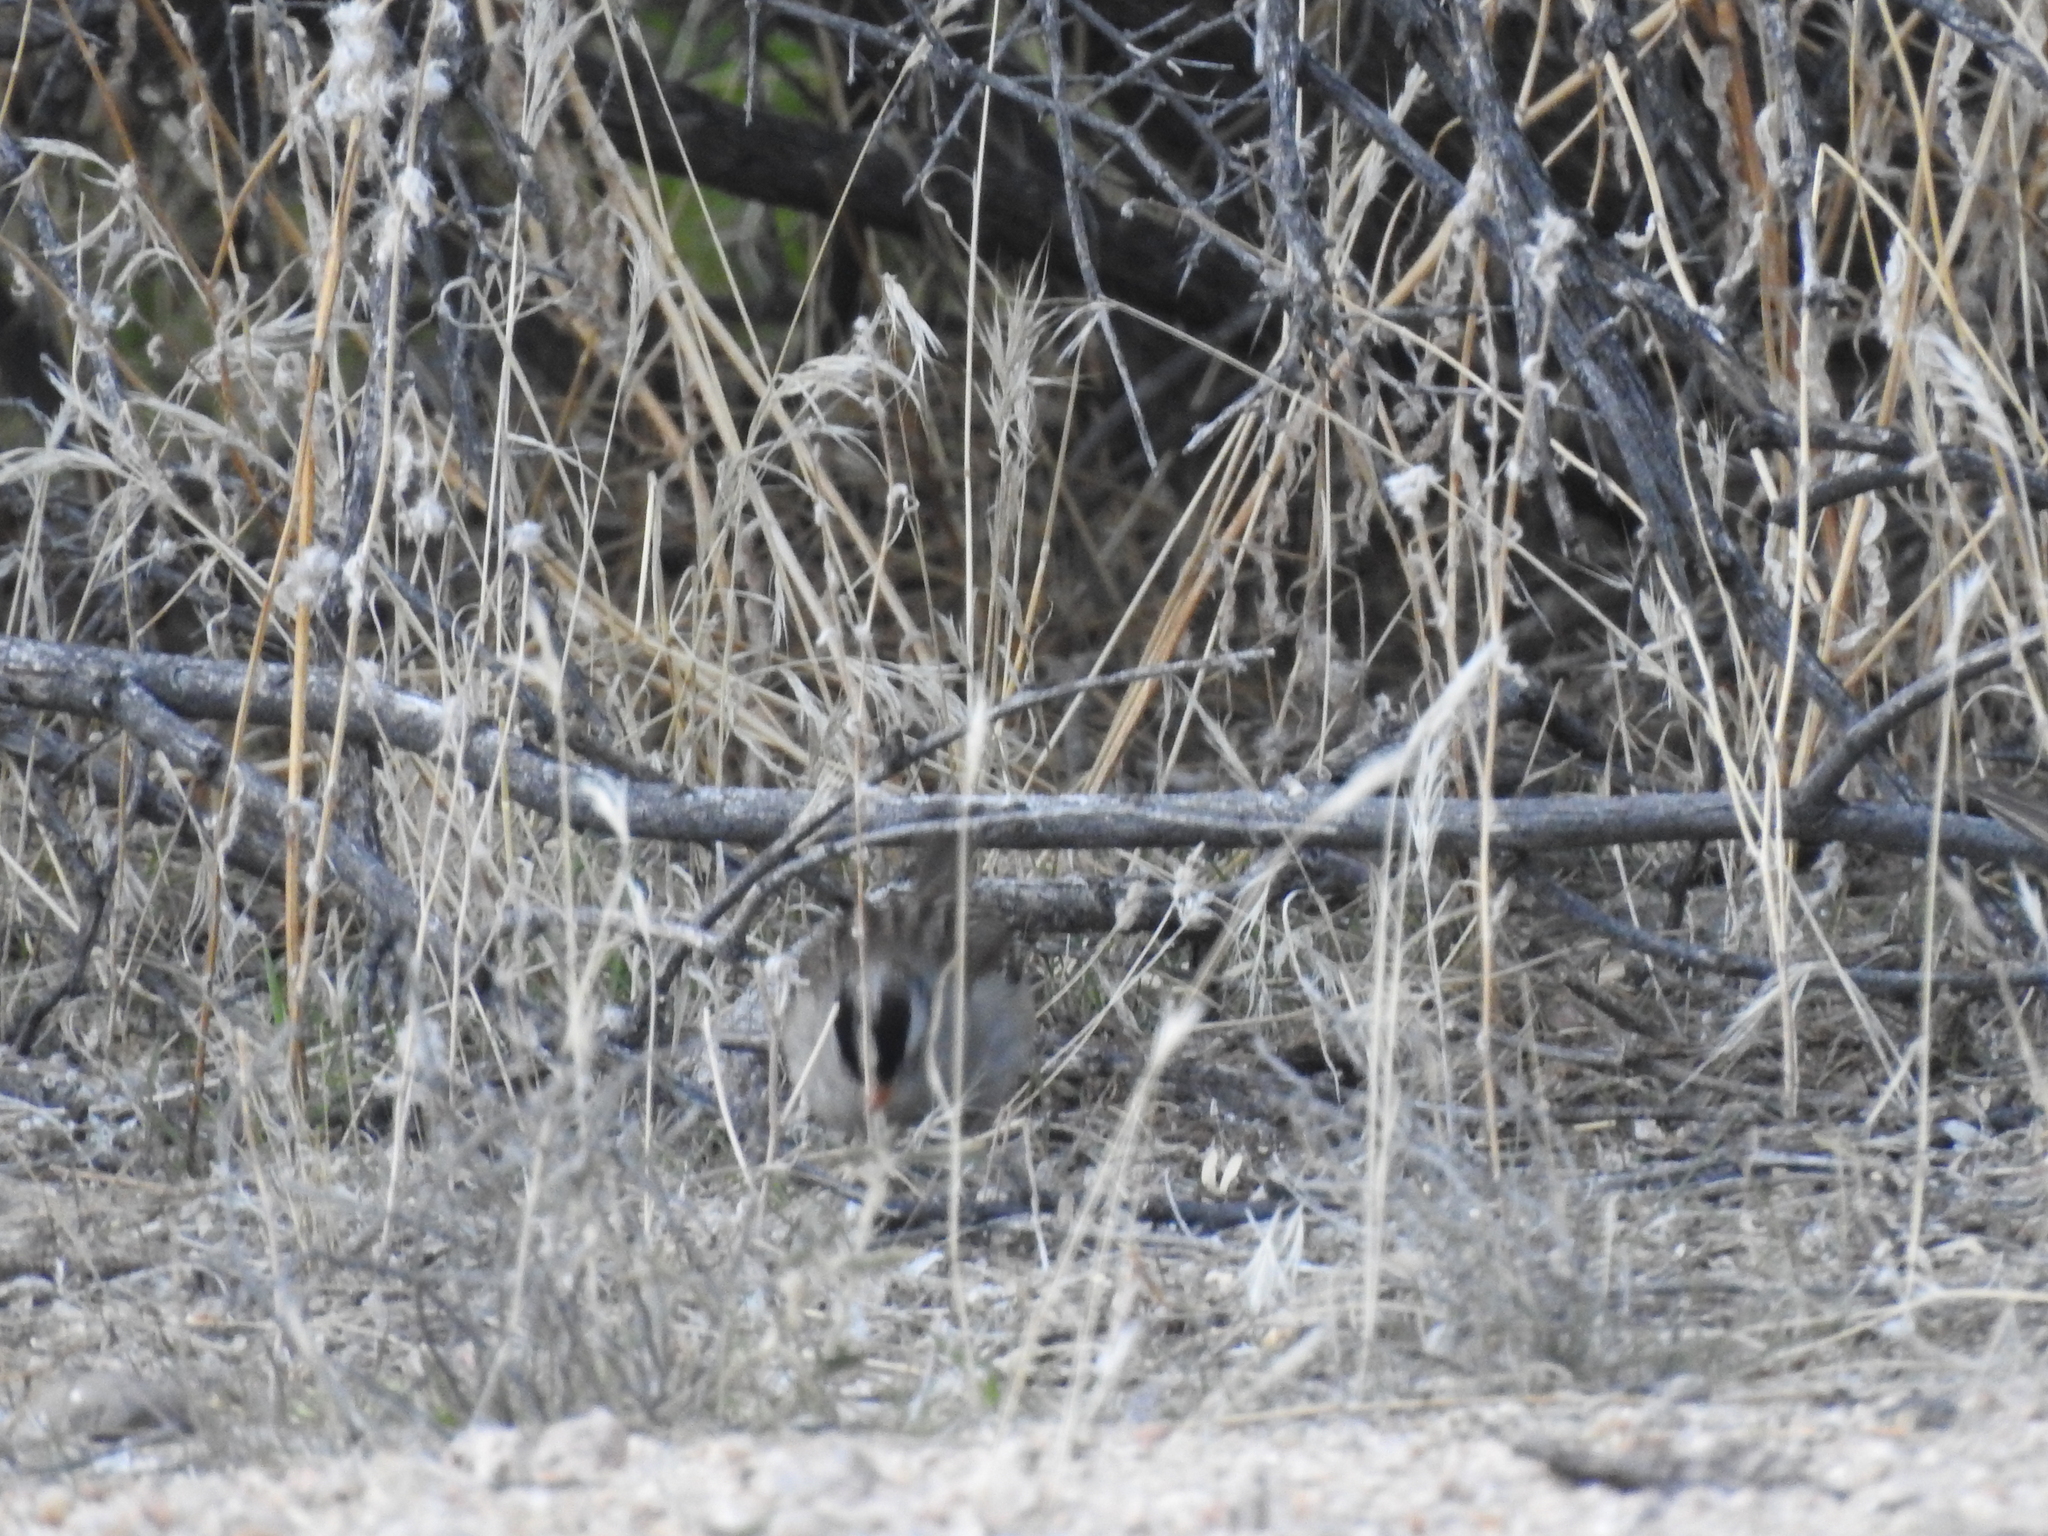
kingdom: Animalia
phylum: Chordata
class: Aves
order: Passeriformes
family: Passerellidae
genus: Zonotrichia
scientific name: Zonotrichia leucophrys
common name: White-crowned sparrow
